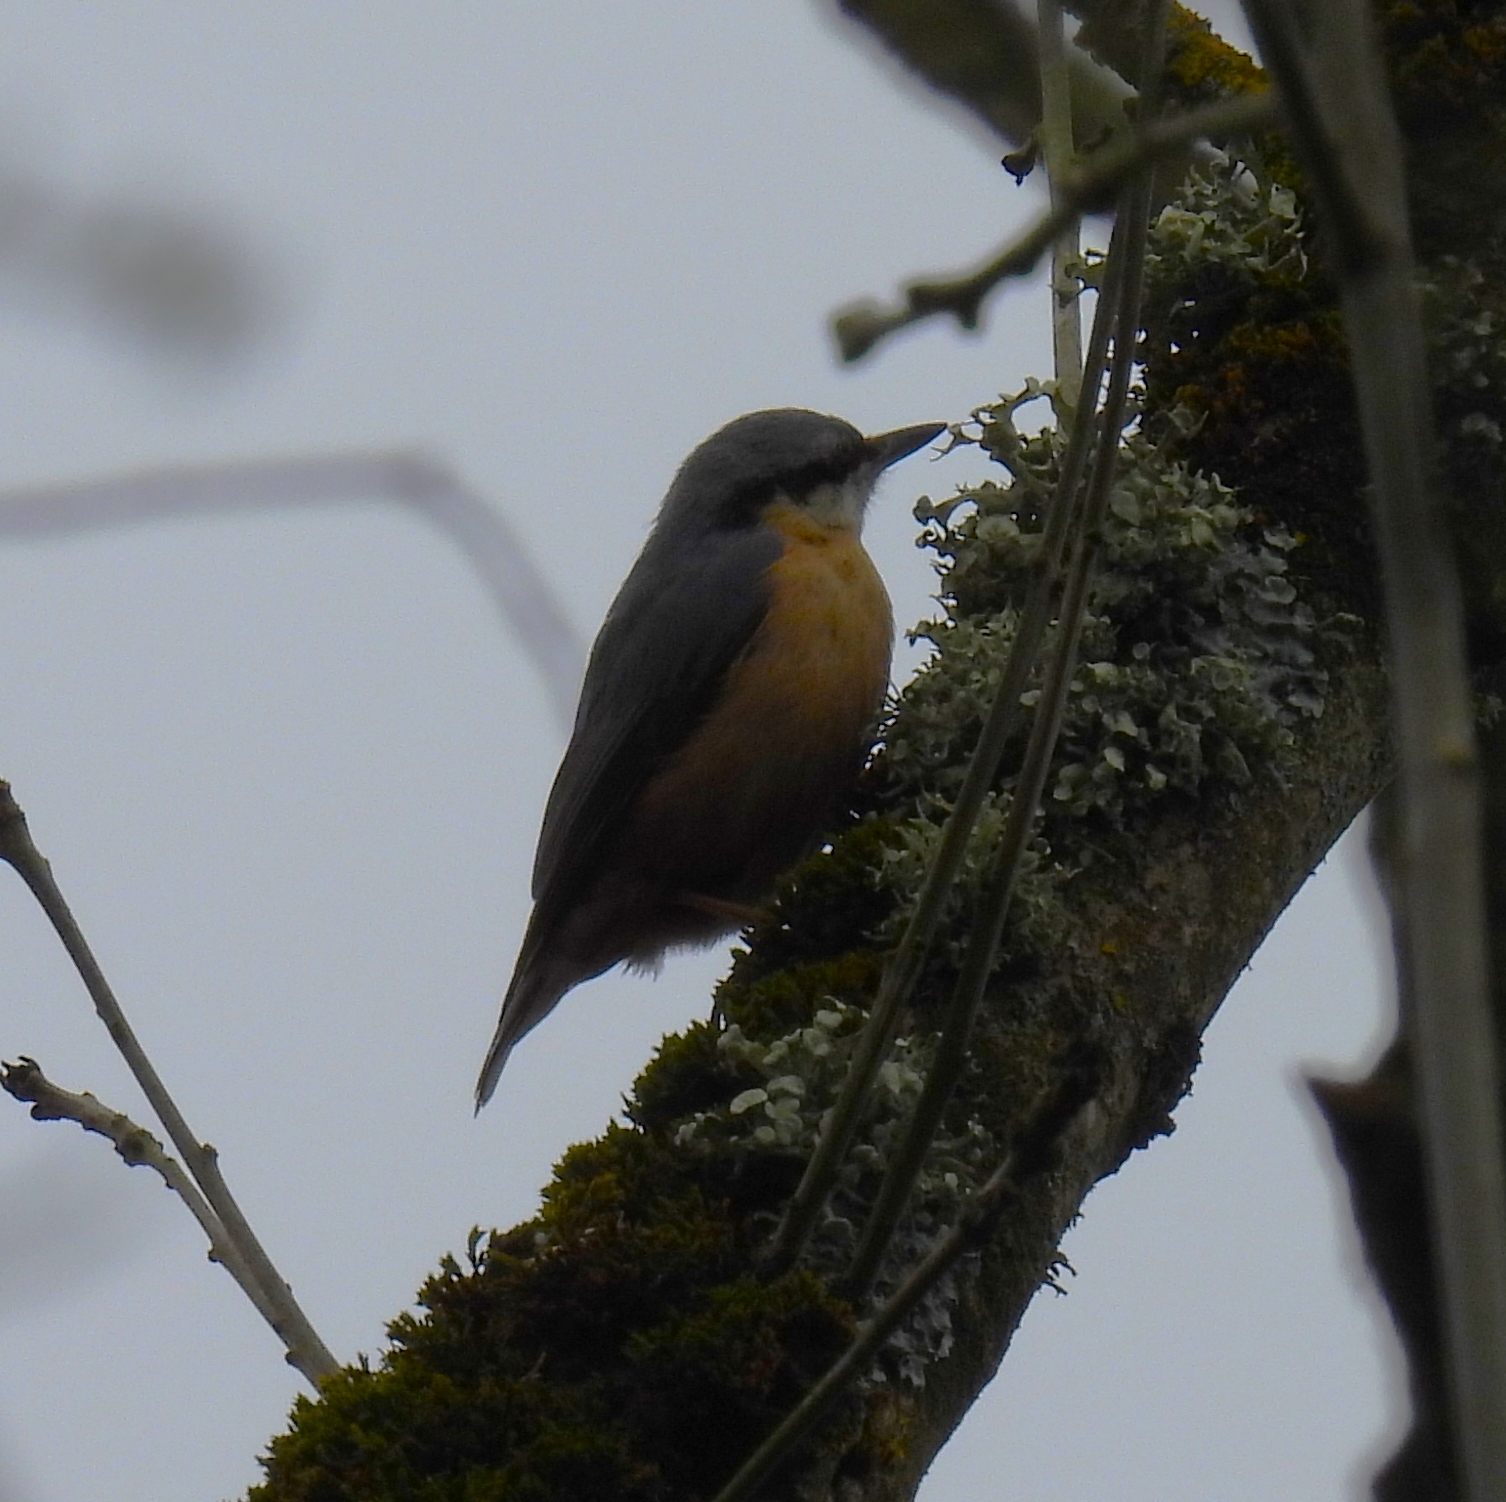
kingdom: Animalia
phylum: Chordata
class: Aves
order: Passeriformes
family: Sittidae
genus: Sitta
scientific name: Sitta europaea
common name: Eurasian nuthatch
